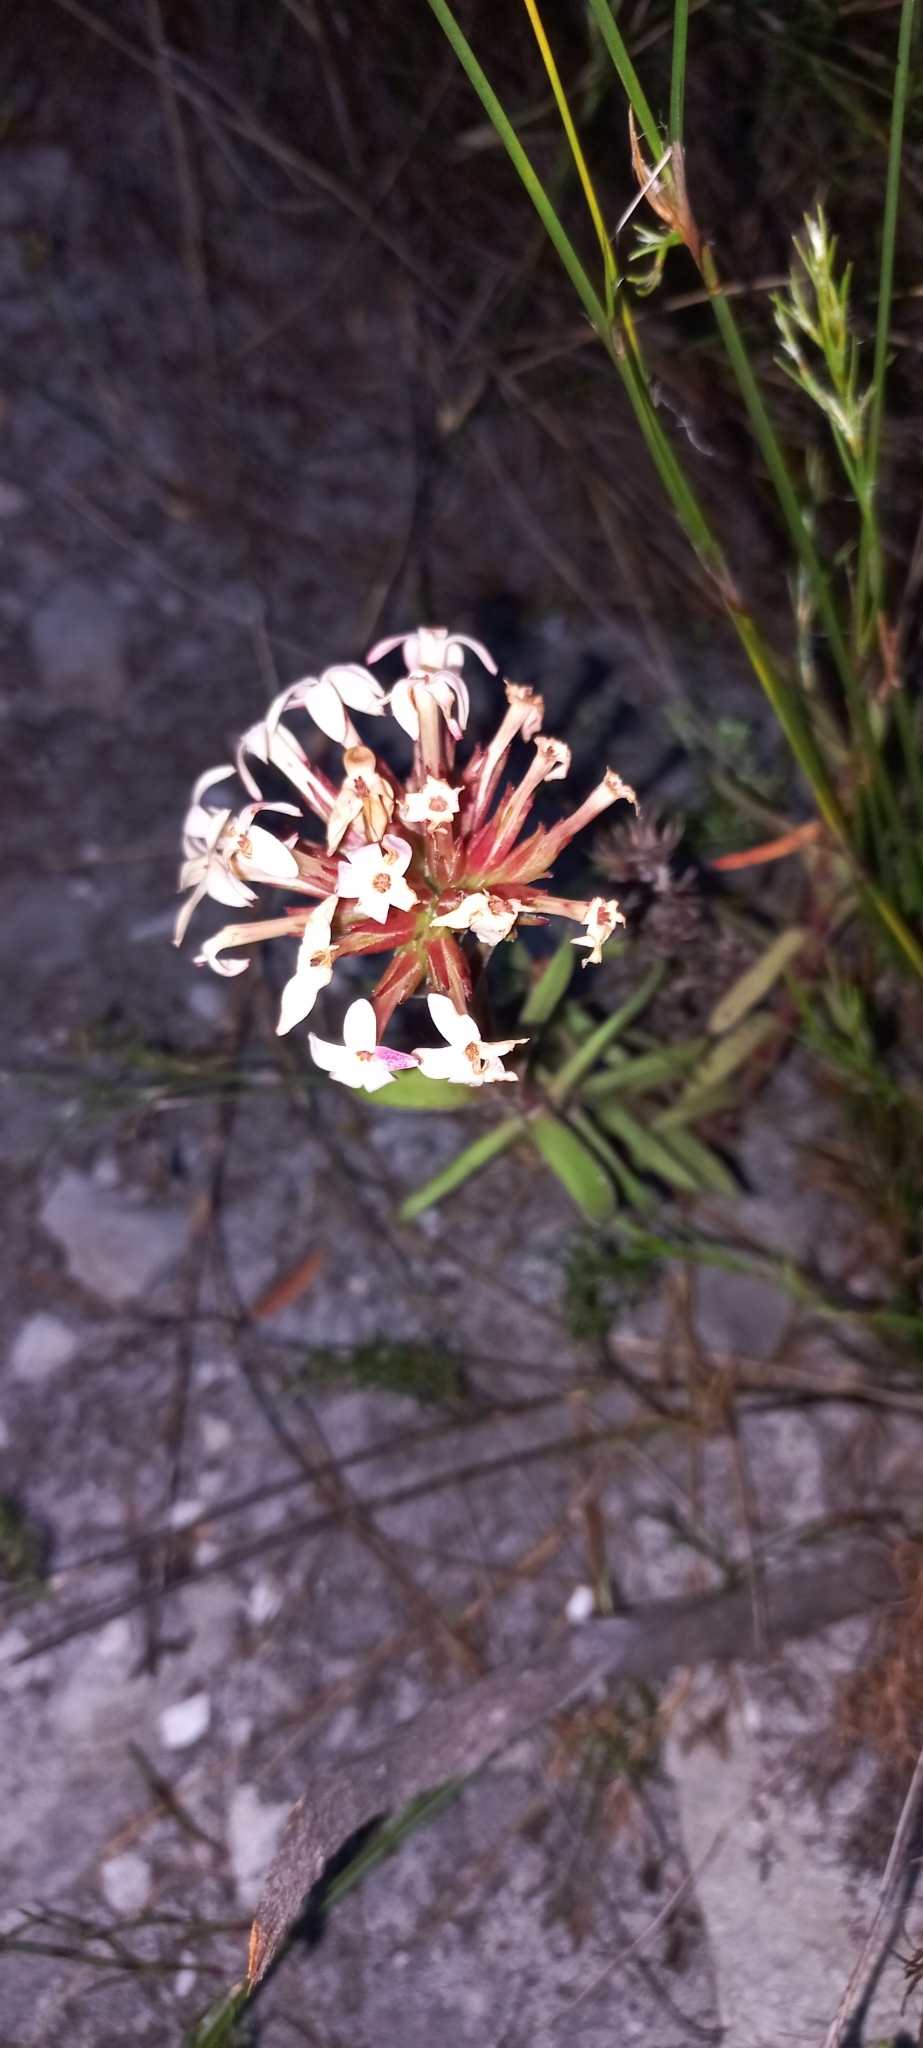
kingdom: Plantae
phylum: Tracheophyta
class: Magnoliopsida
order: Saxifragales
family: Crassulaceae
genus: Crassula
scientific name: Crassula fascicularis
